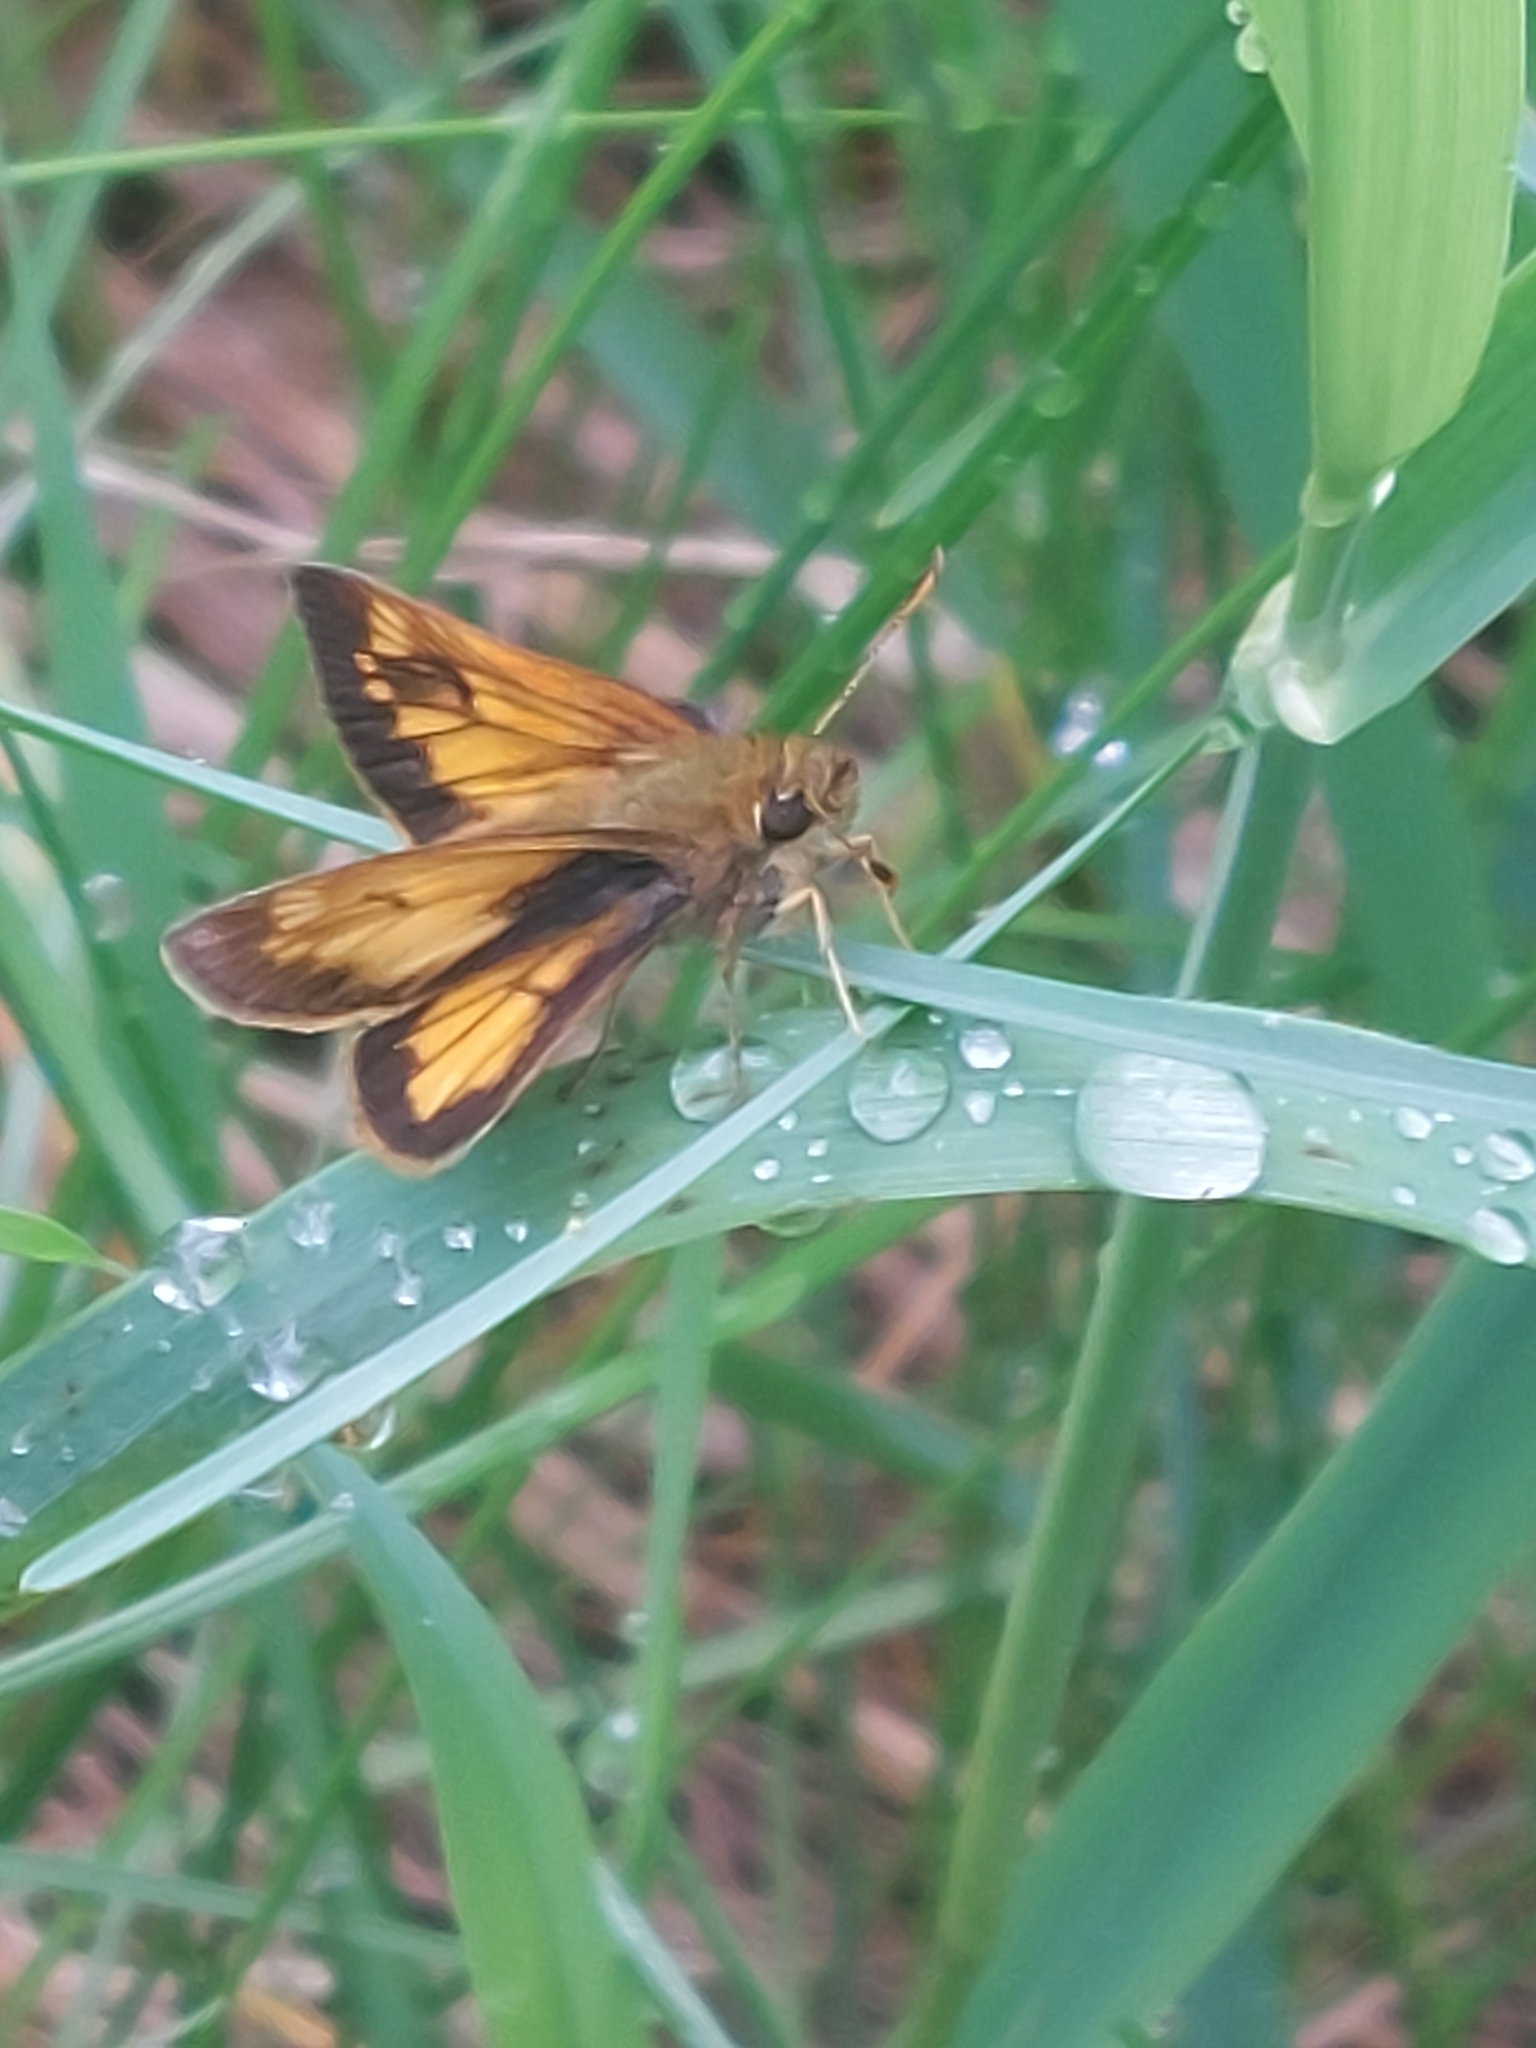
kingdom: Animalia
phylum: Arthropoda
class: Insecta
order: Lepidoptera
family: Hesperiidae
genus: Lon
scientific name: Lon hobomok
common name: Hobomok skipper
